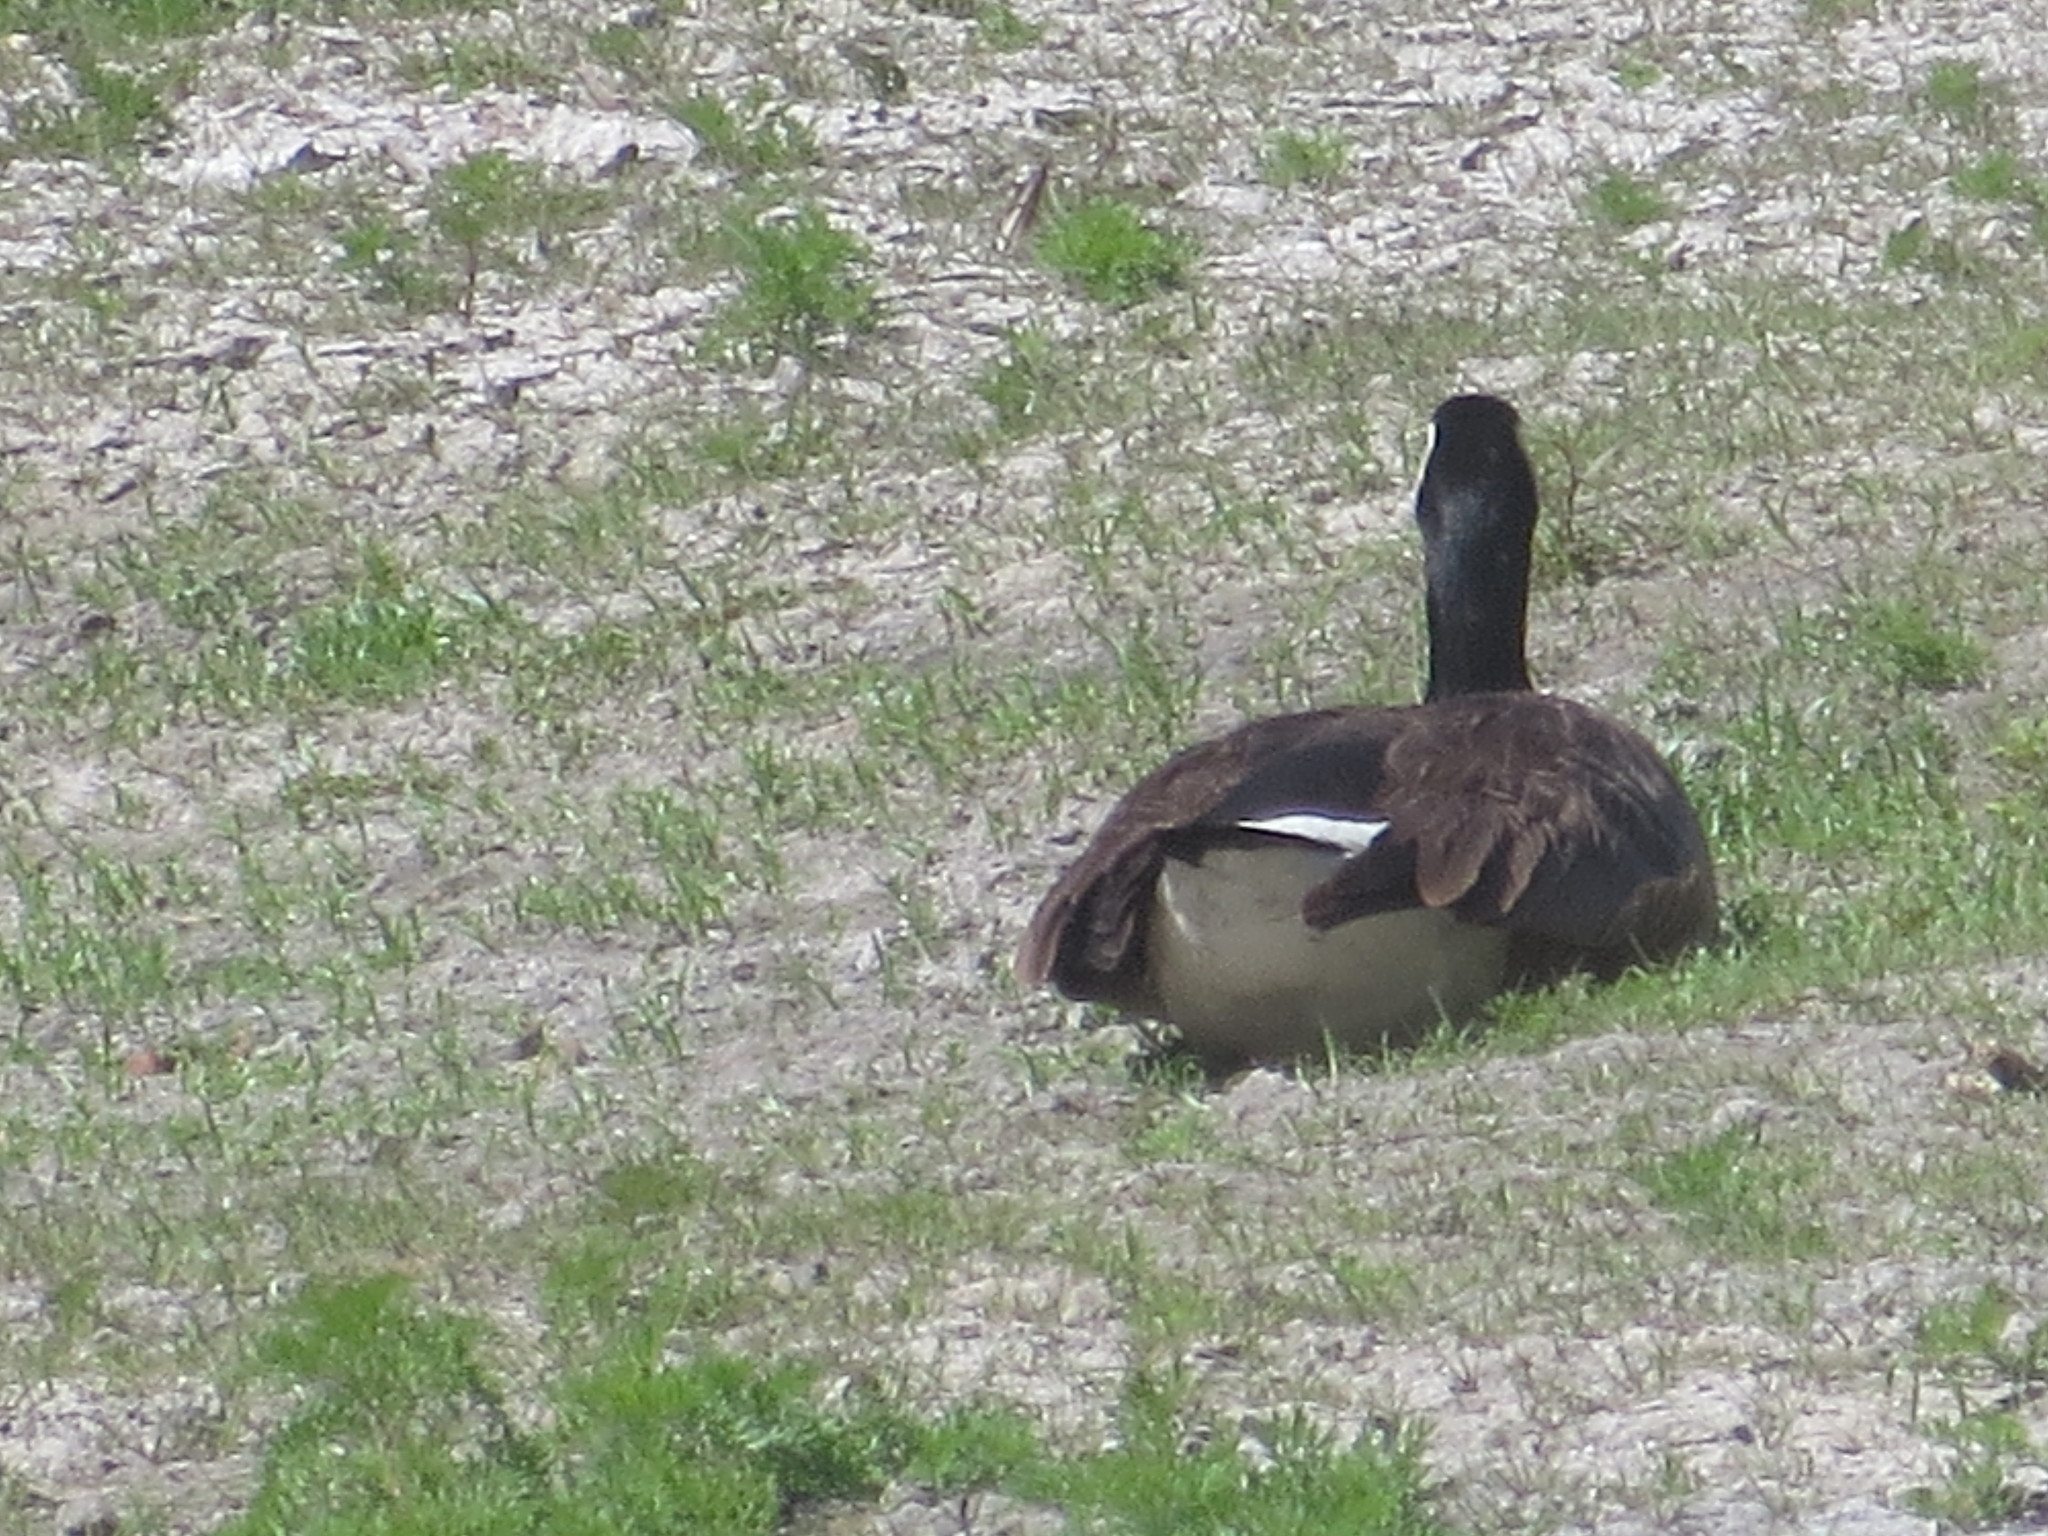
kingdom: Animalia
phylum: Chordata
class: Aves
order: Anseriformes
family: Anatidae
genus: Branta
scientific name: Branta canadensis
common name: Canada goose
